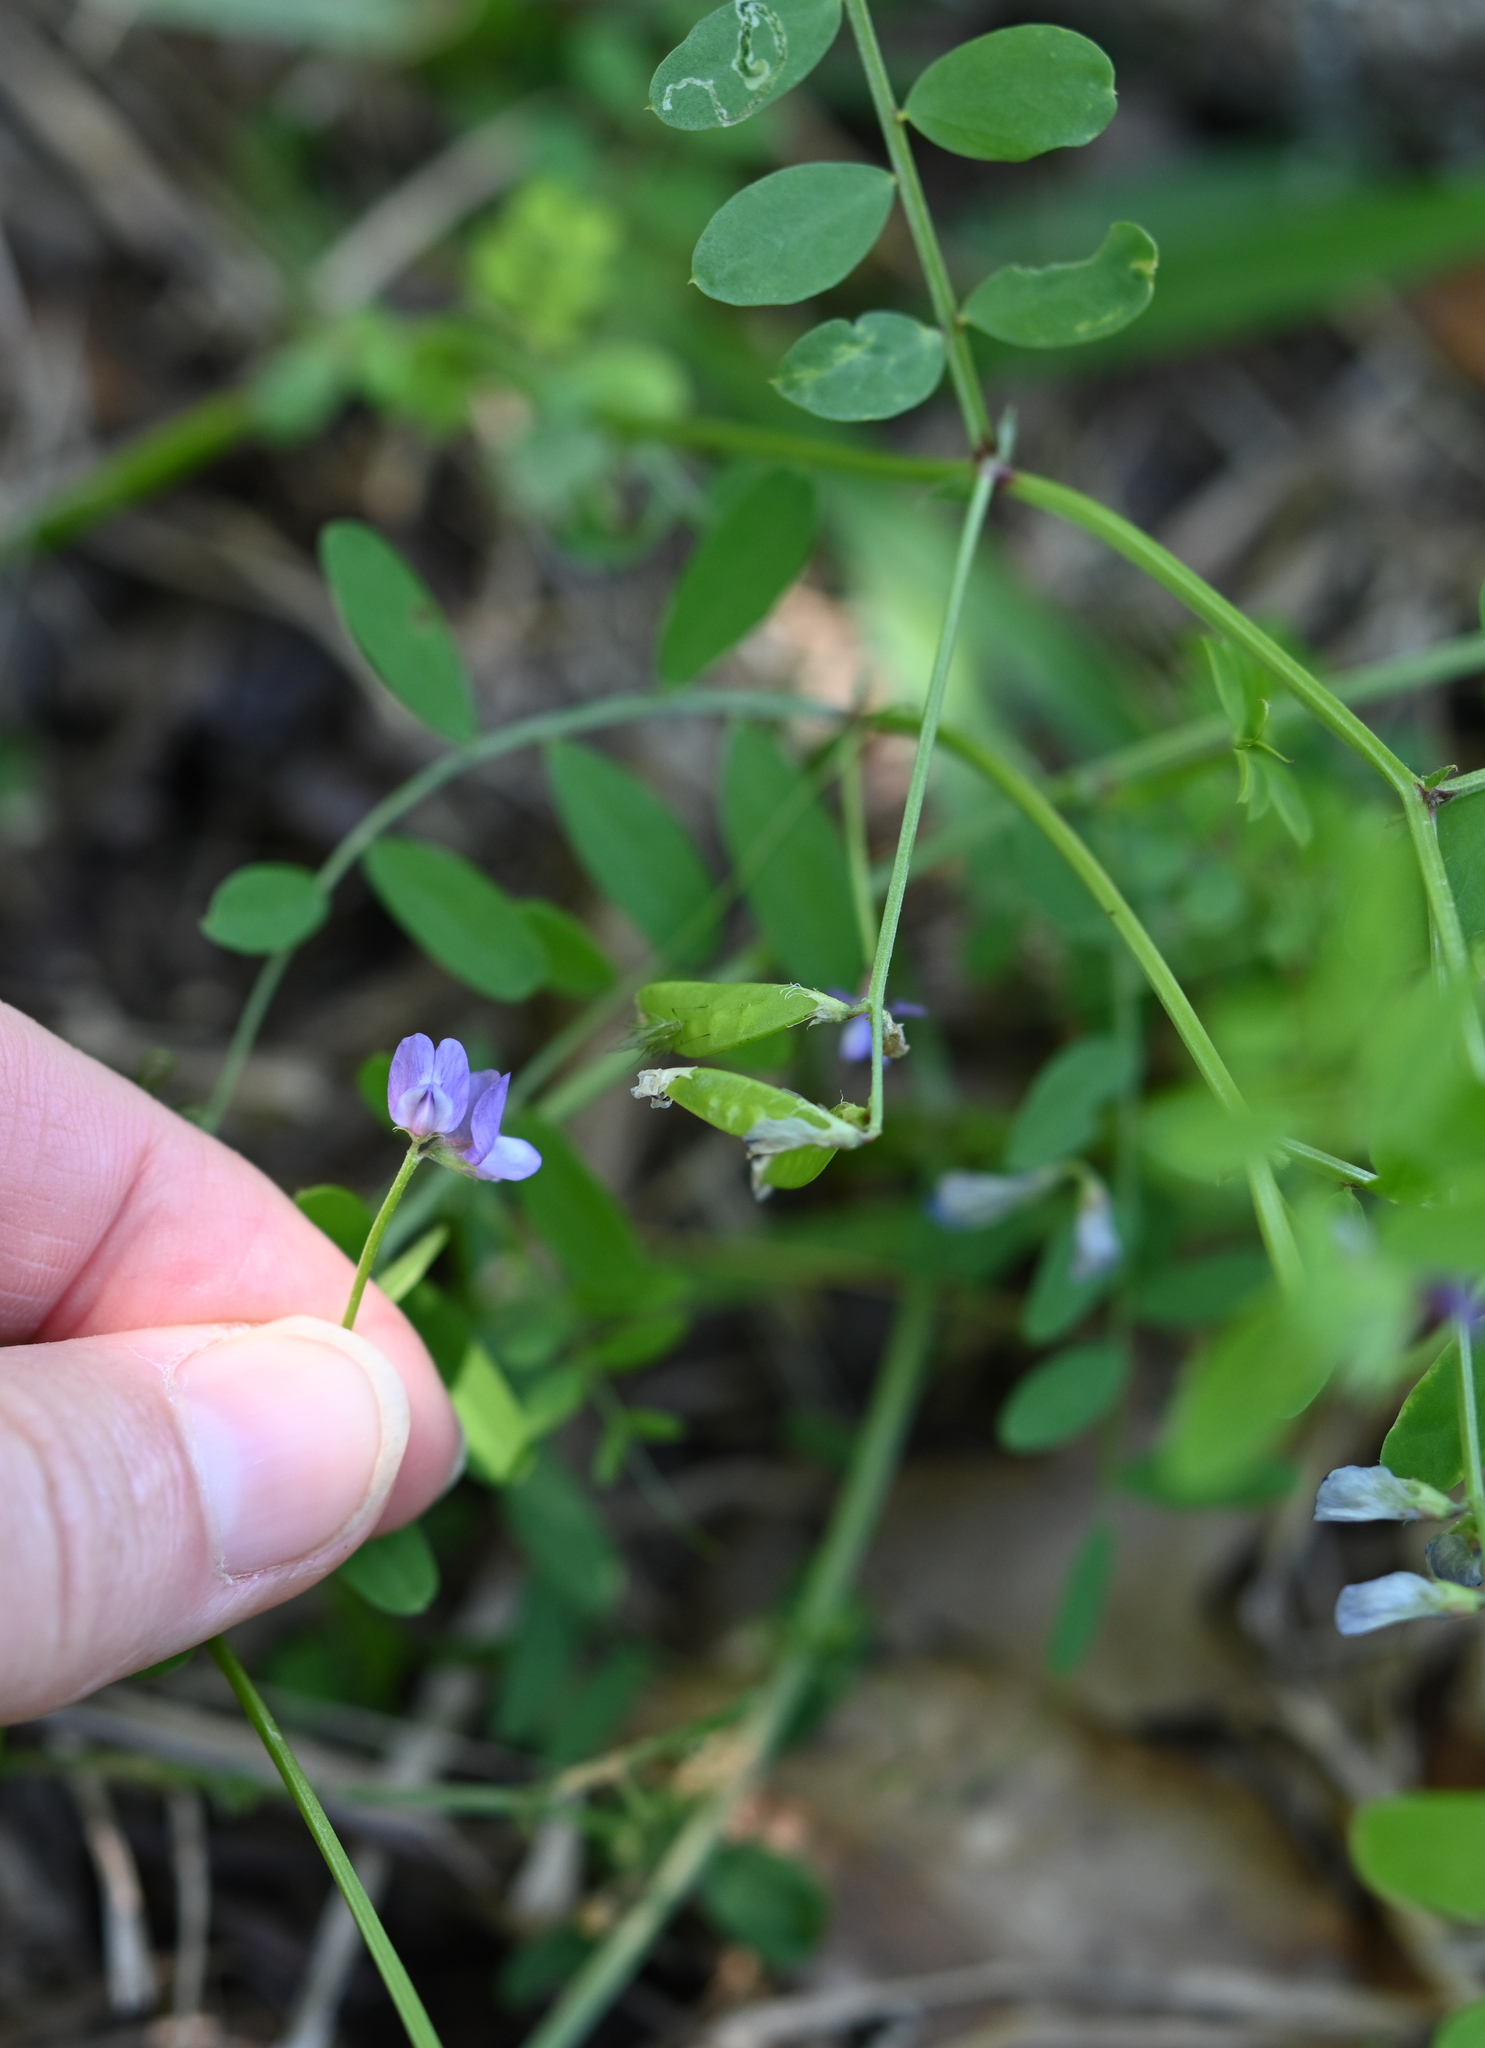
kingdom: Plantae
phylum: Tracheophyta
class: Magnoliopsida
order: Fabales
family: Fabaceae
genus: Vicia
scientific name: Vicia ludoviciana
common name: Louisiana vetch
